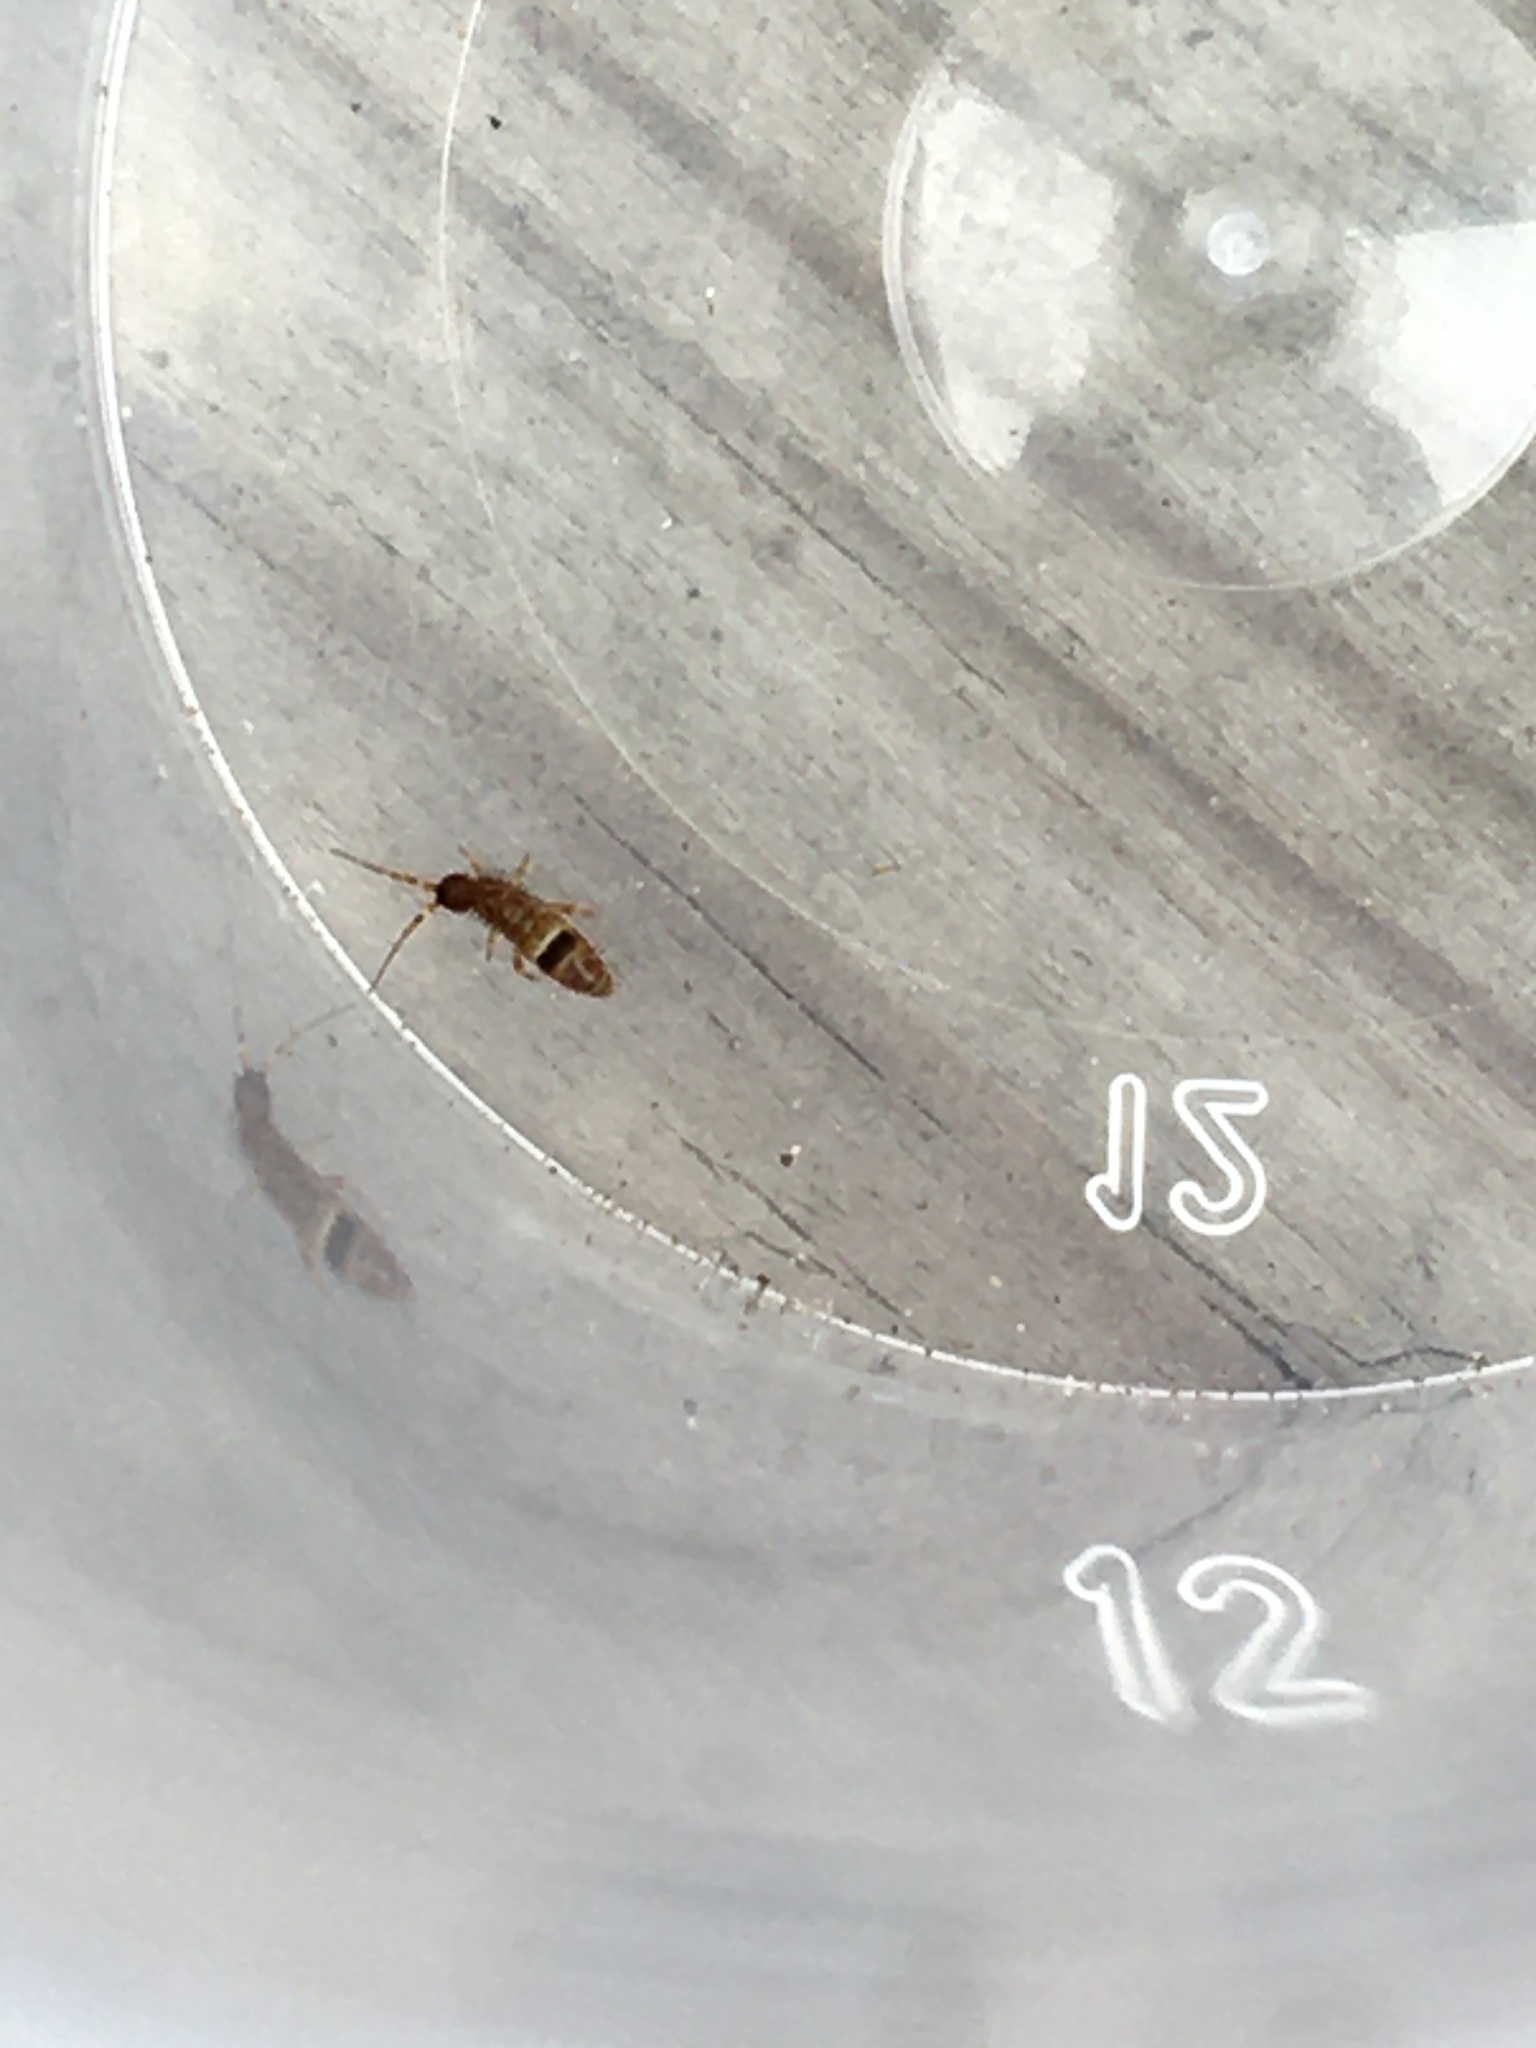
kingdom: Animalia
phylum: Arthropoda
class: Collembola
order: Entomobryomorpha
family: Orchesellidae
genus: Orchesella
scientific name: Orchesella cincta
